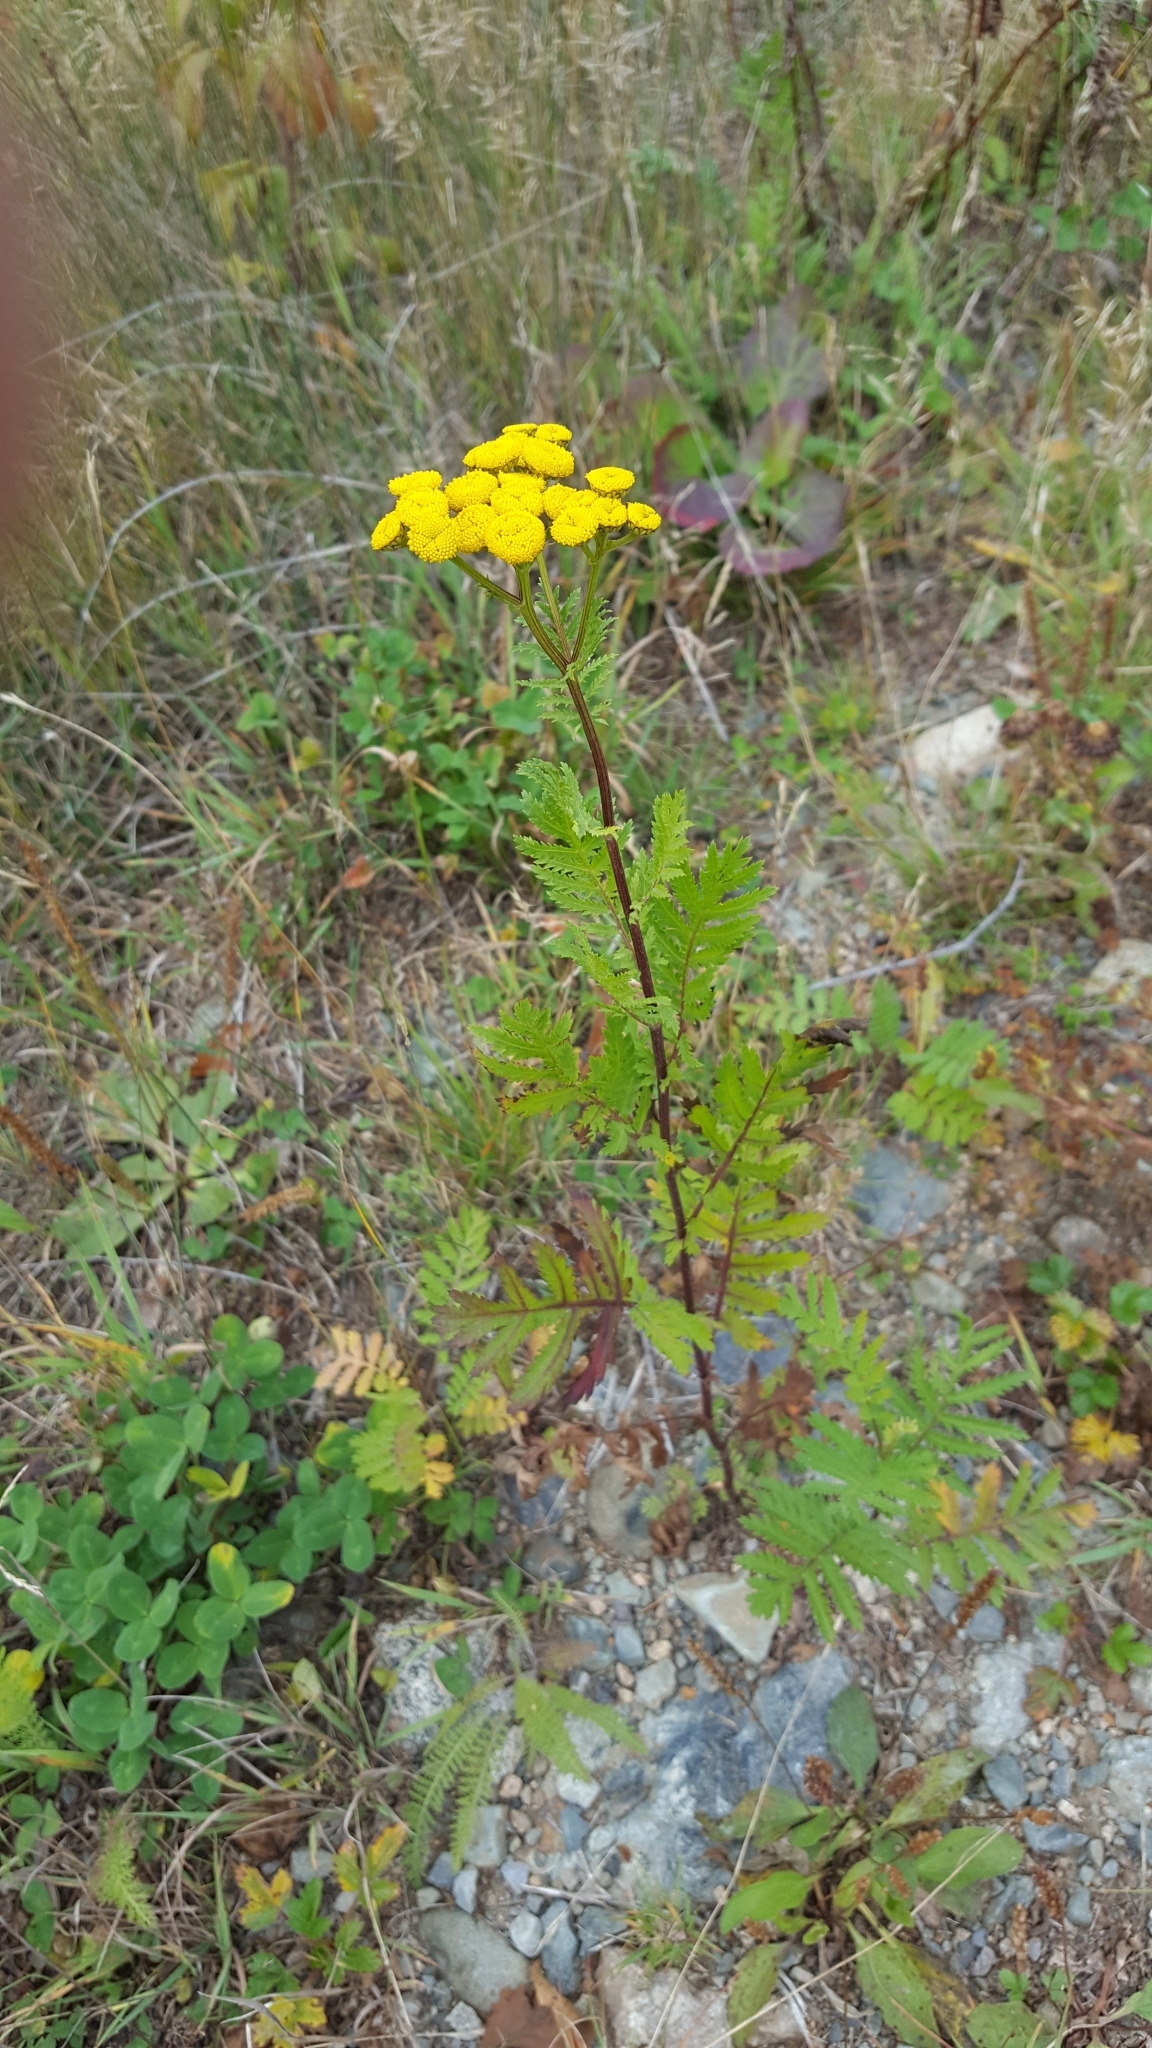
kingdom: Plantae
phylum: Tracheophyta
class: Magnoliopsida
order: Asterales
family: Asteraceae
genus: Tanacetum
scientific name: Tanacetum vulgare
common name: Common tansy
